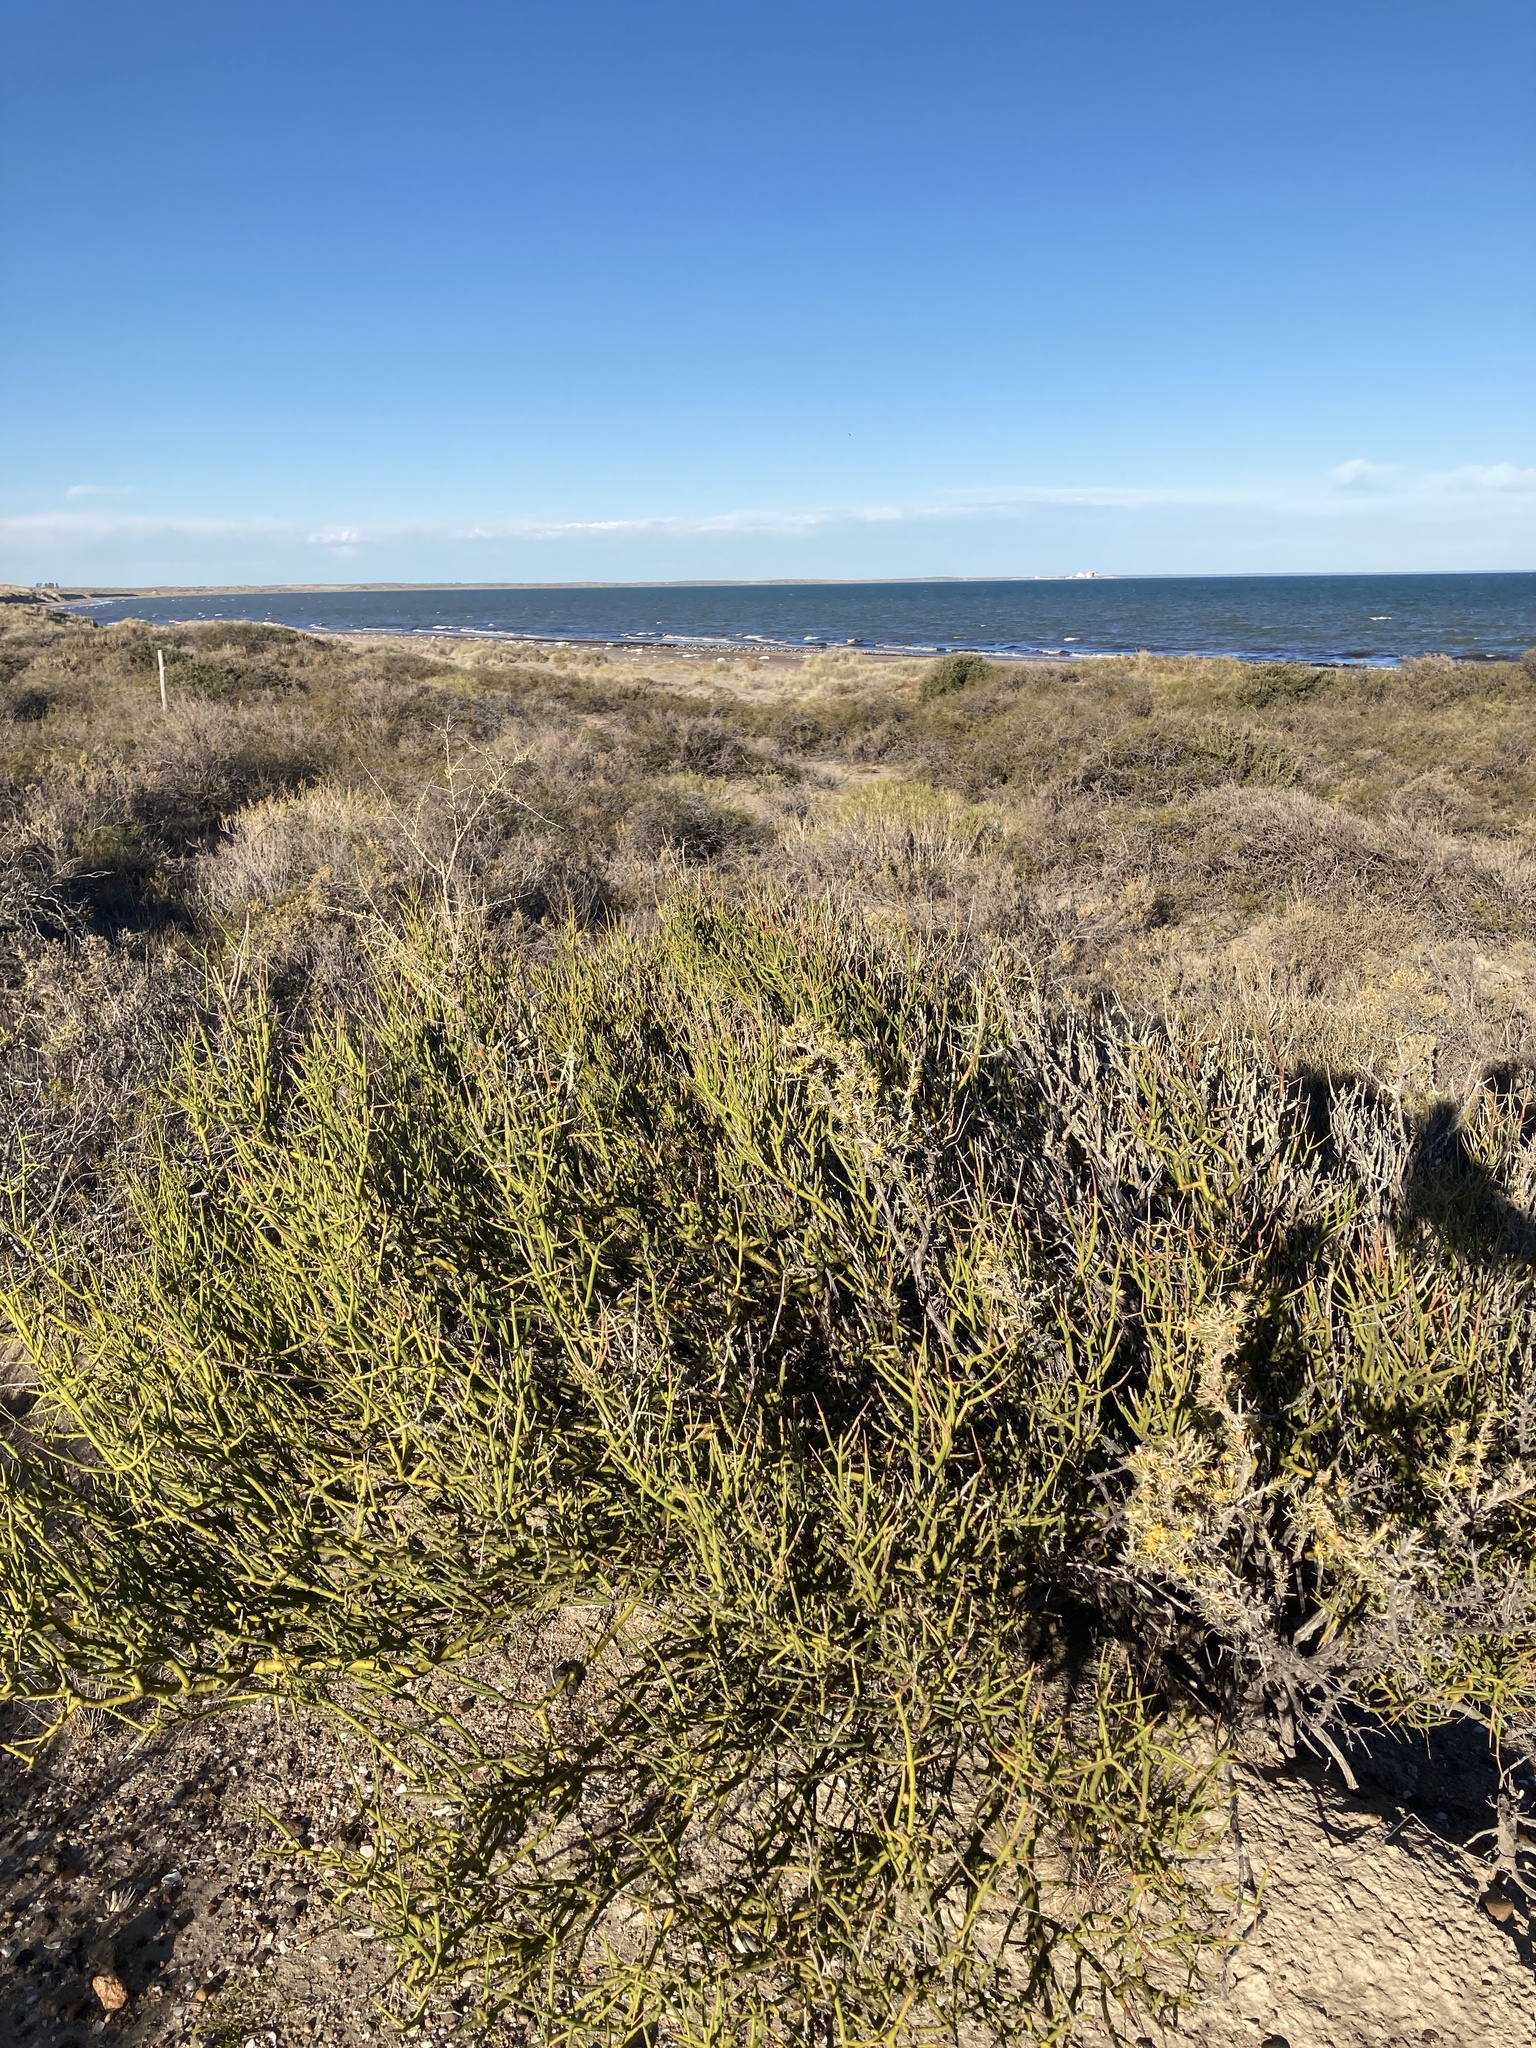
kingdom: Plantae
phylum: Tracheophyta
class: Magnoliopsida
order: Lamiales
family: Plantaginaceae
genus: Monttea
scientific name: Monttea aphylla
